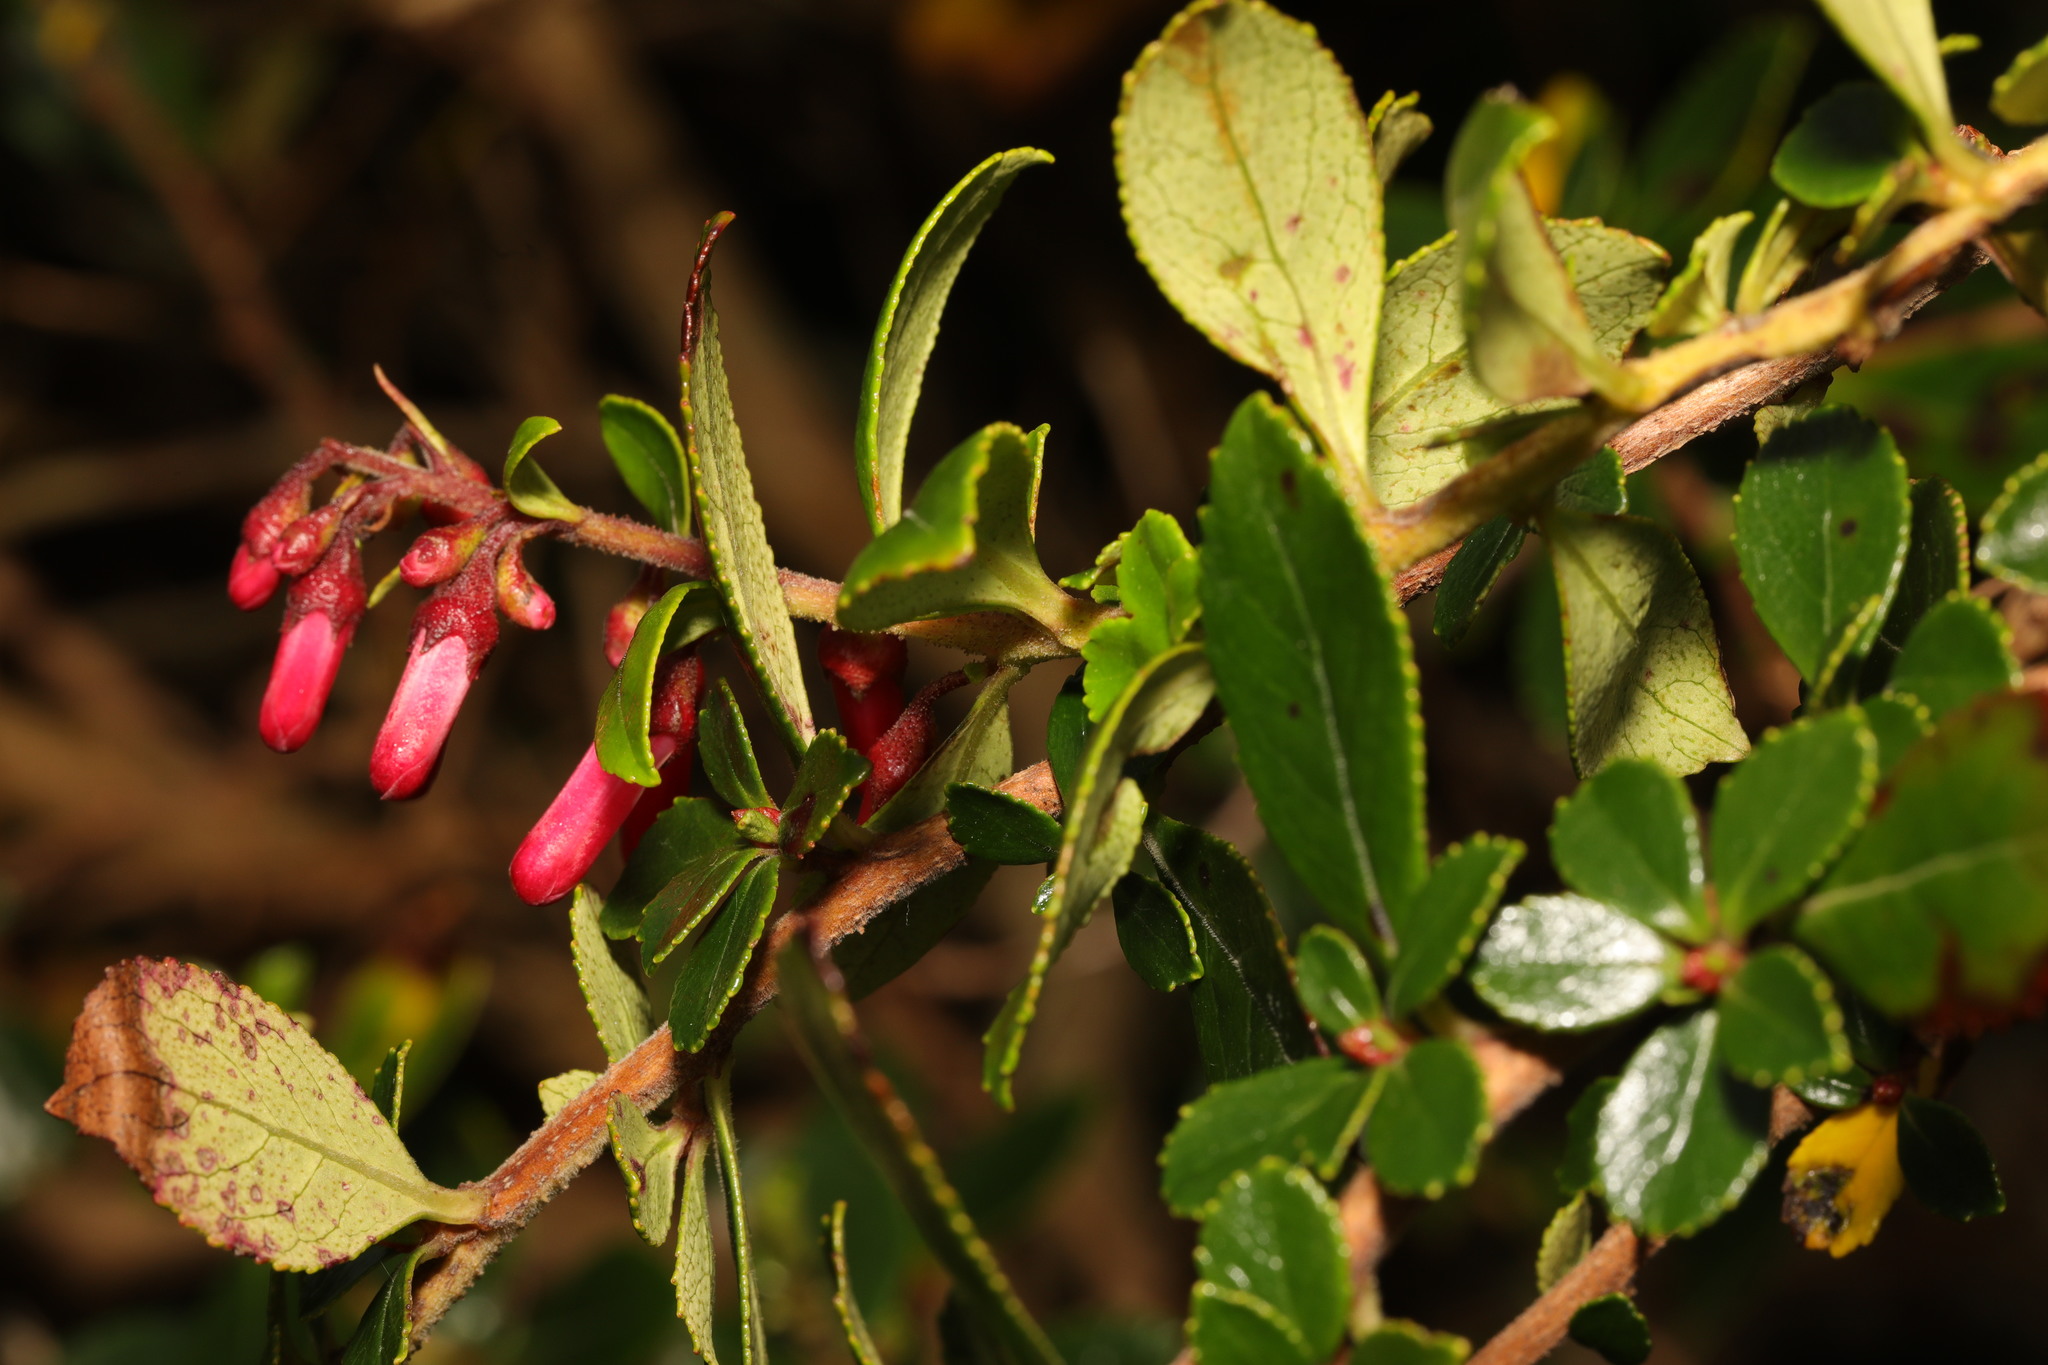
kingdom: Plantae
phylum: Tracheophyta
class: Magnoliopsida
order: Escalloniales
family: Escalloniaceae
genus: Escallonia
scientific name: Escallonia rubra
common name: Redclaws
